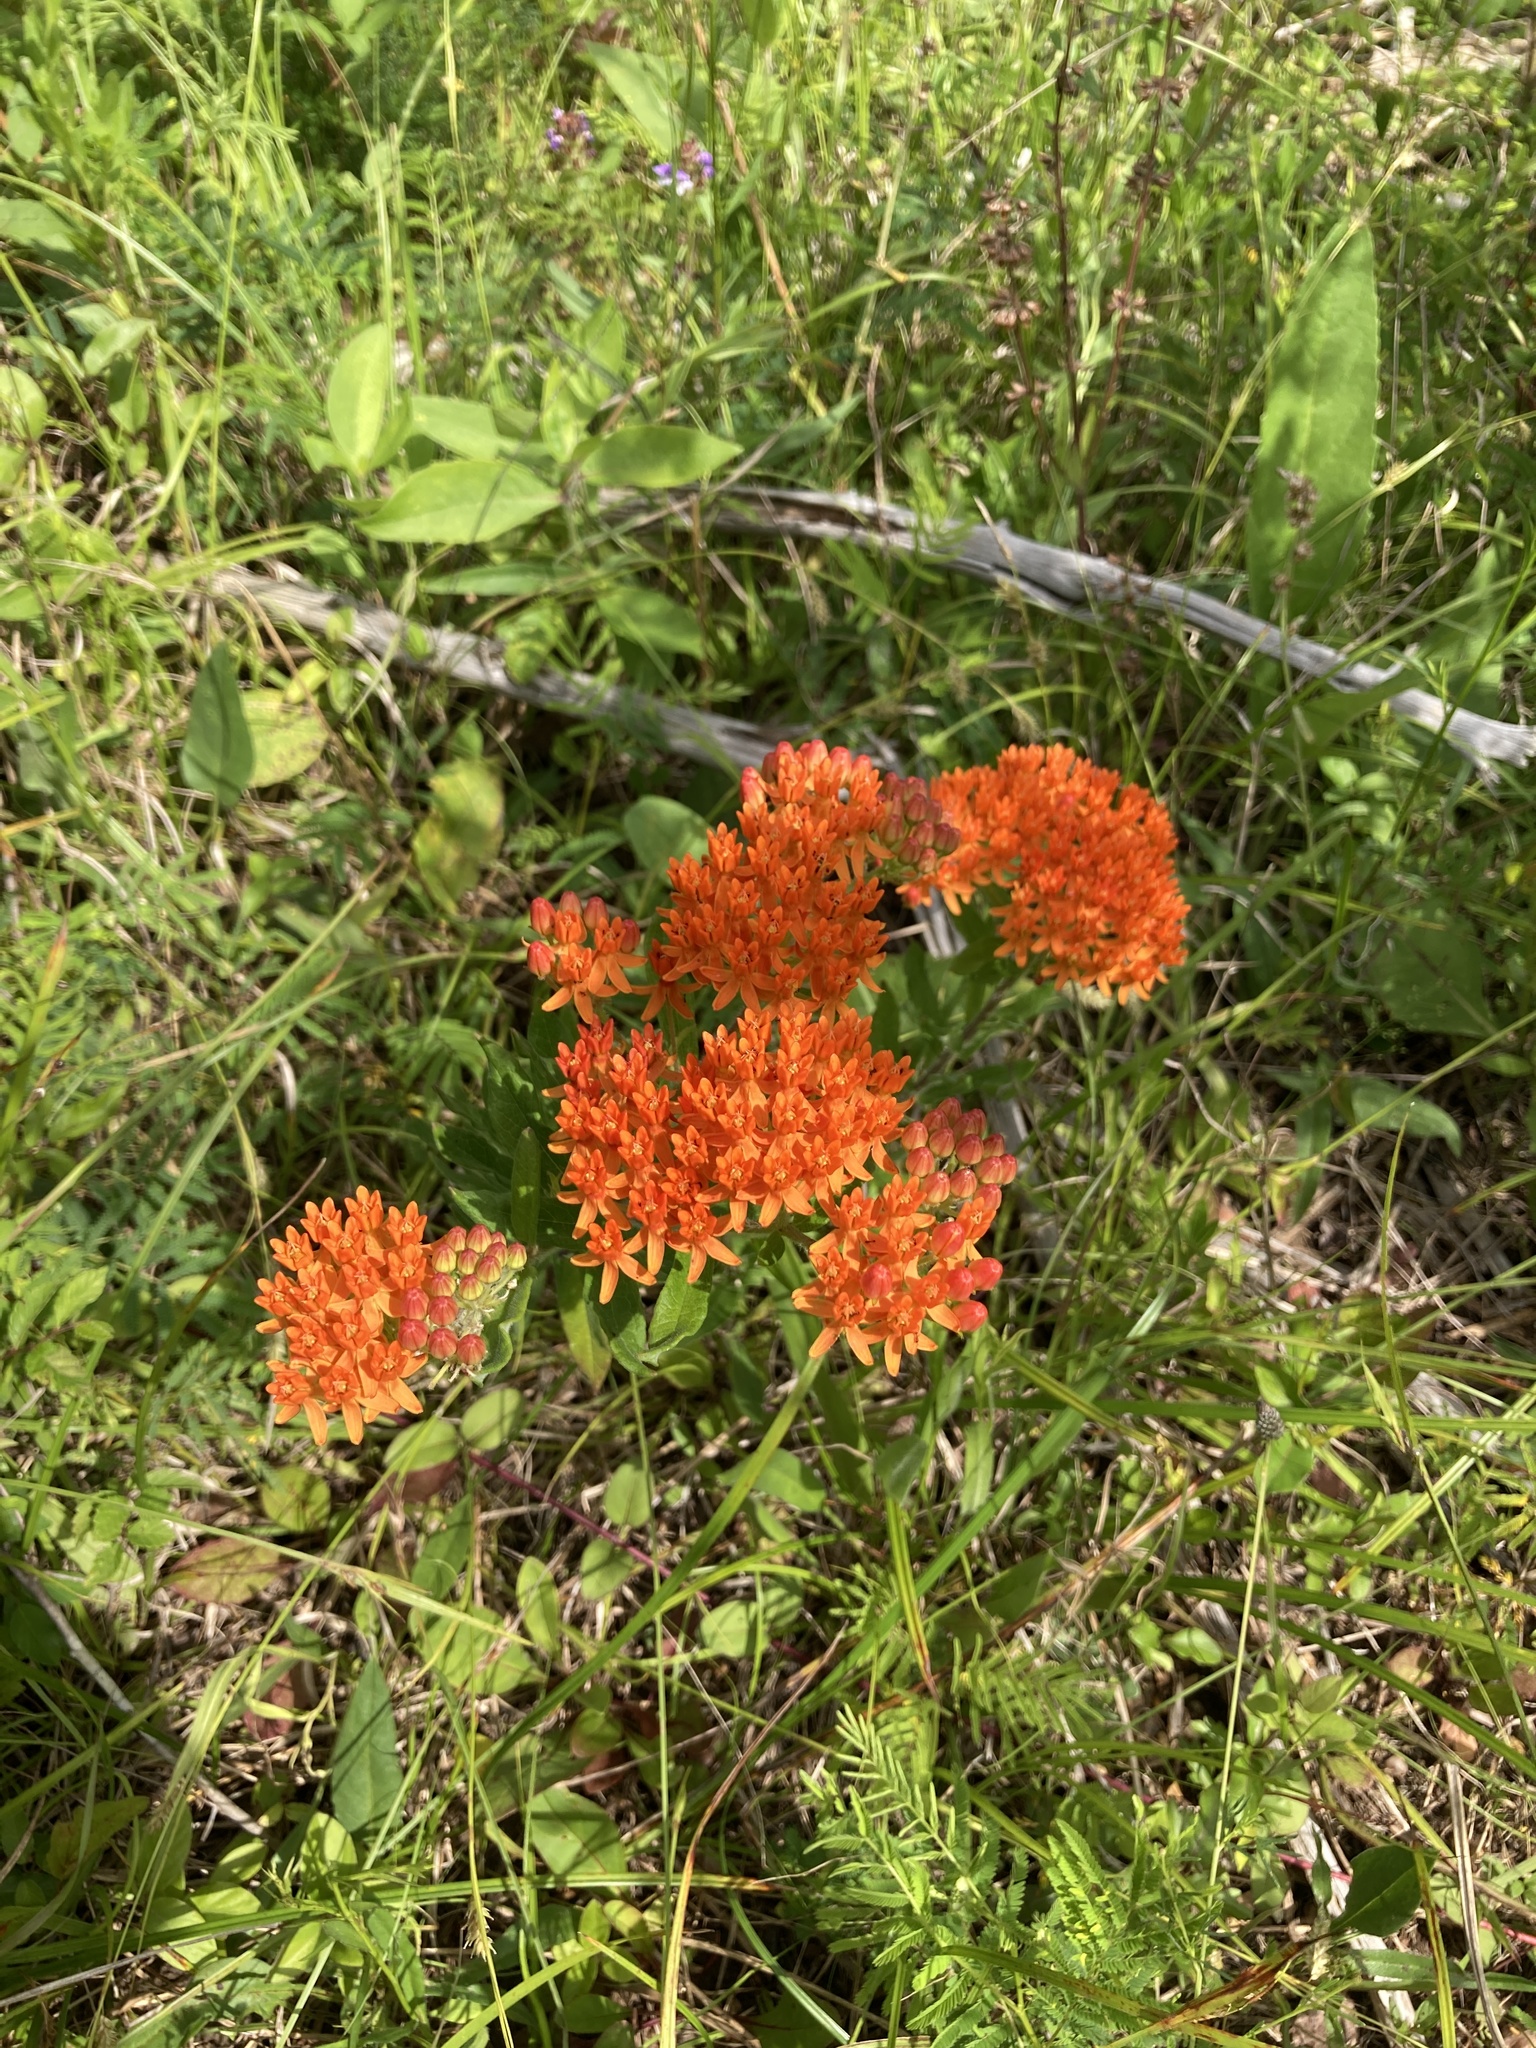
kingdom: Plantae
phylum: Tracheophyta
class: Magnoliopsida
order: Gentianales
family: Apocynaceae
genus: Asclepias
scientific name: Asclepias tuberosa
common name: Butterfly milkweed
